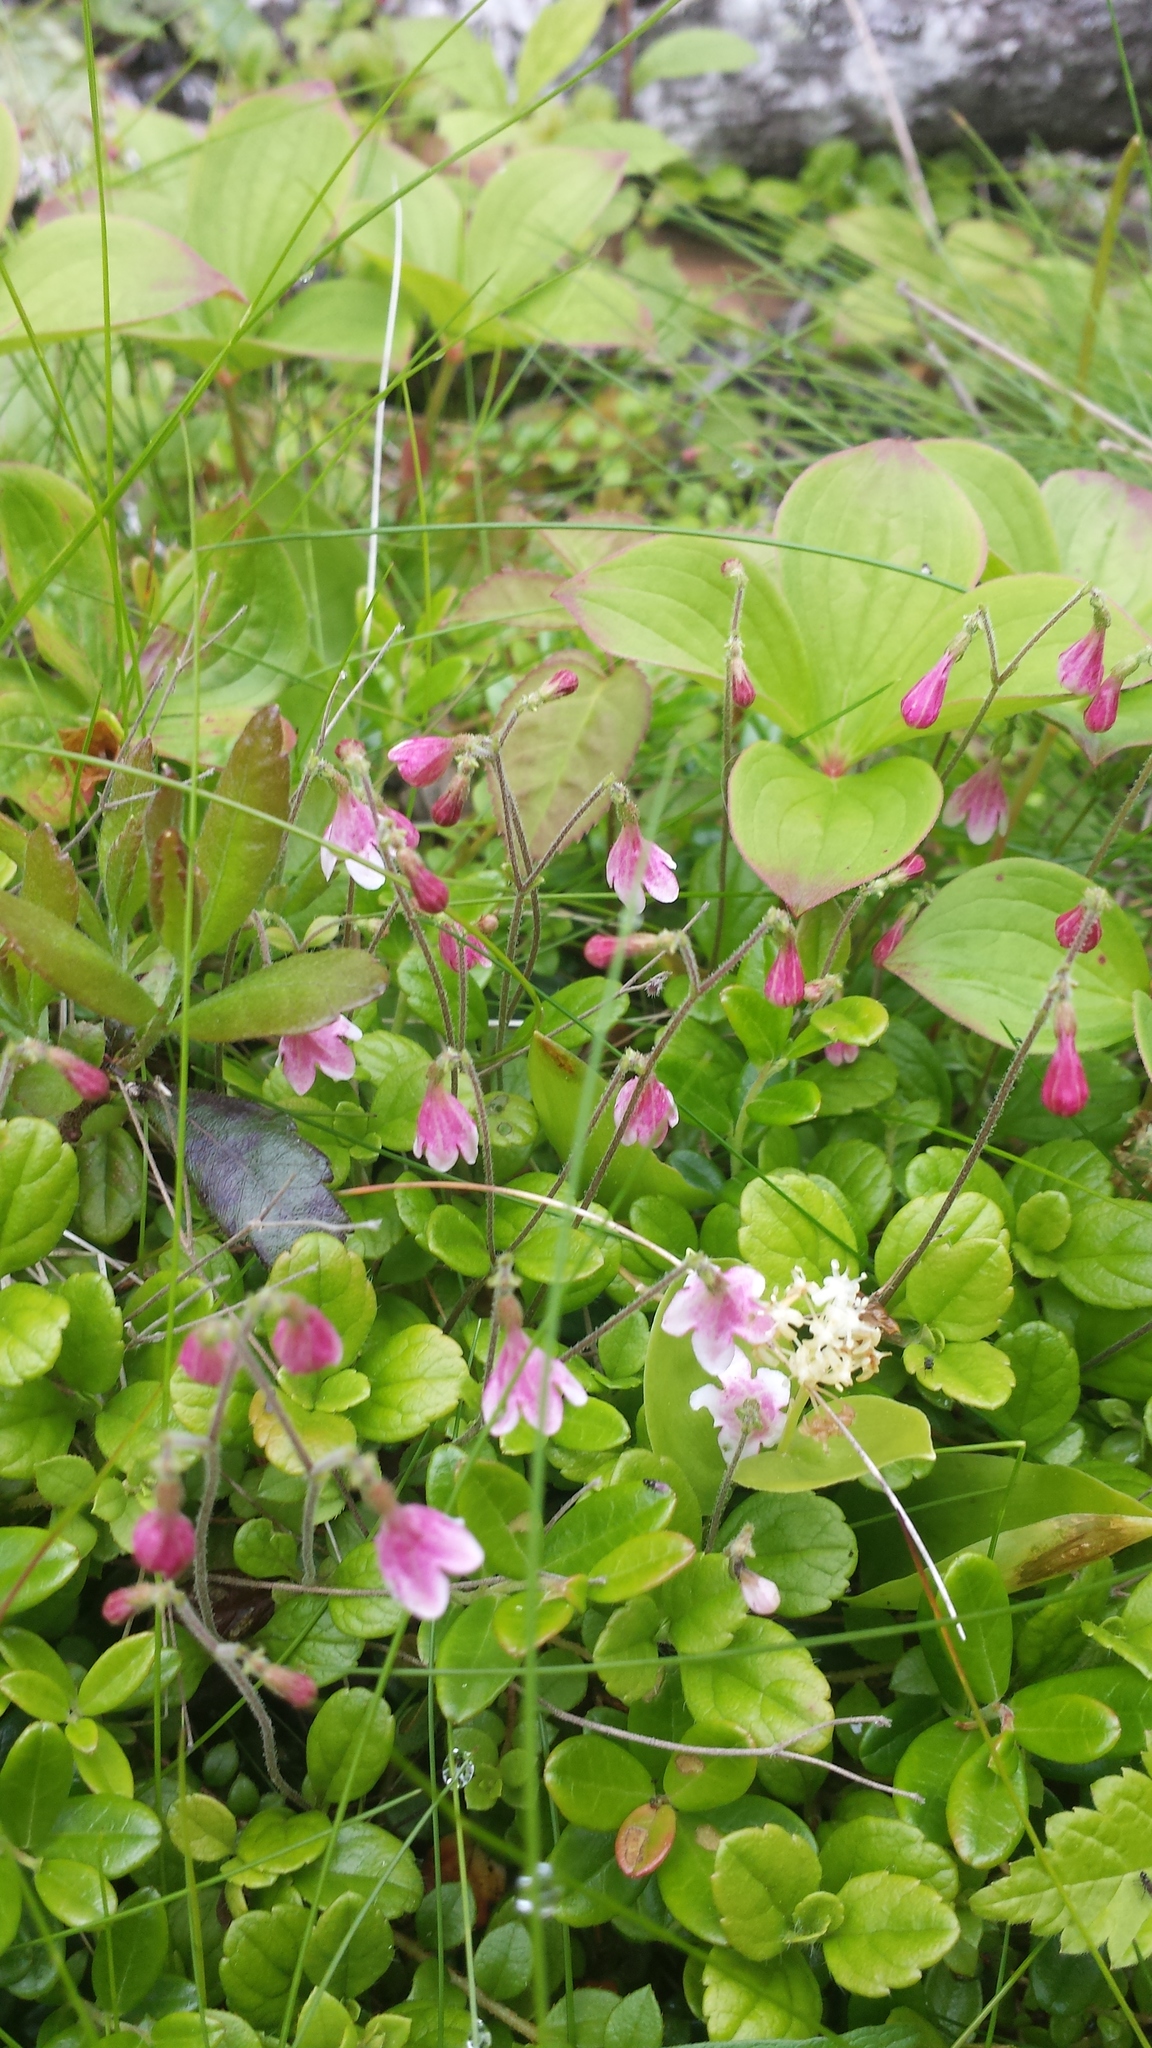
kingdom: Plantae
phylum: Tracheophyta
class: Magnoliopsida
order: Dipsacales
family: Caprifoliaceae
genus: Linnaea
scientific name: Linnaea borealis
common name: Twinflower
